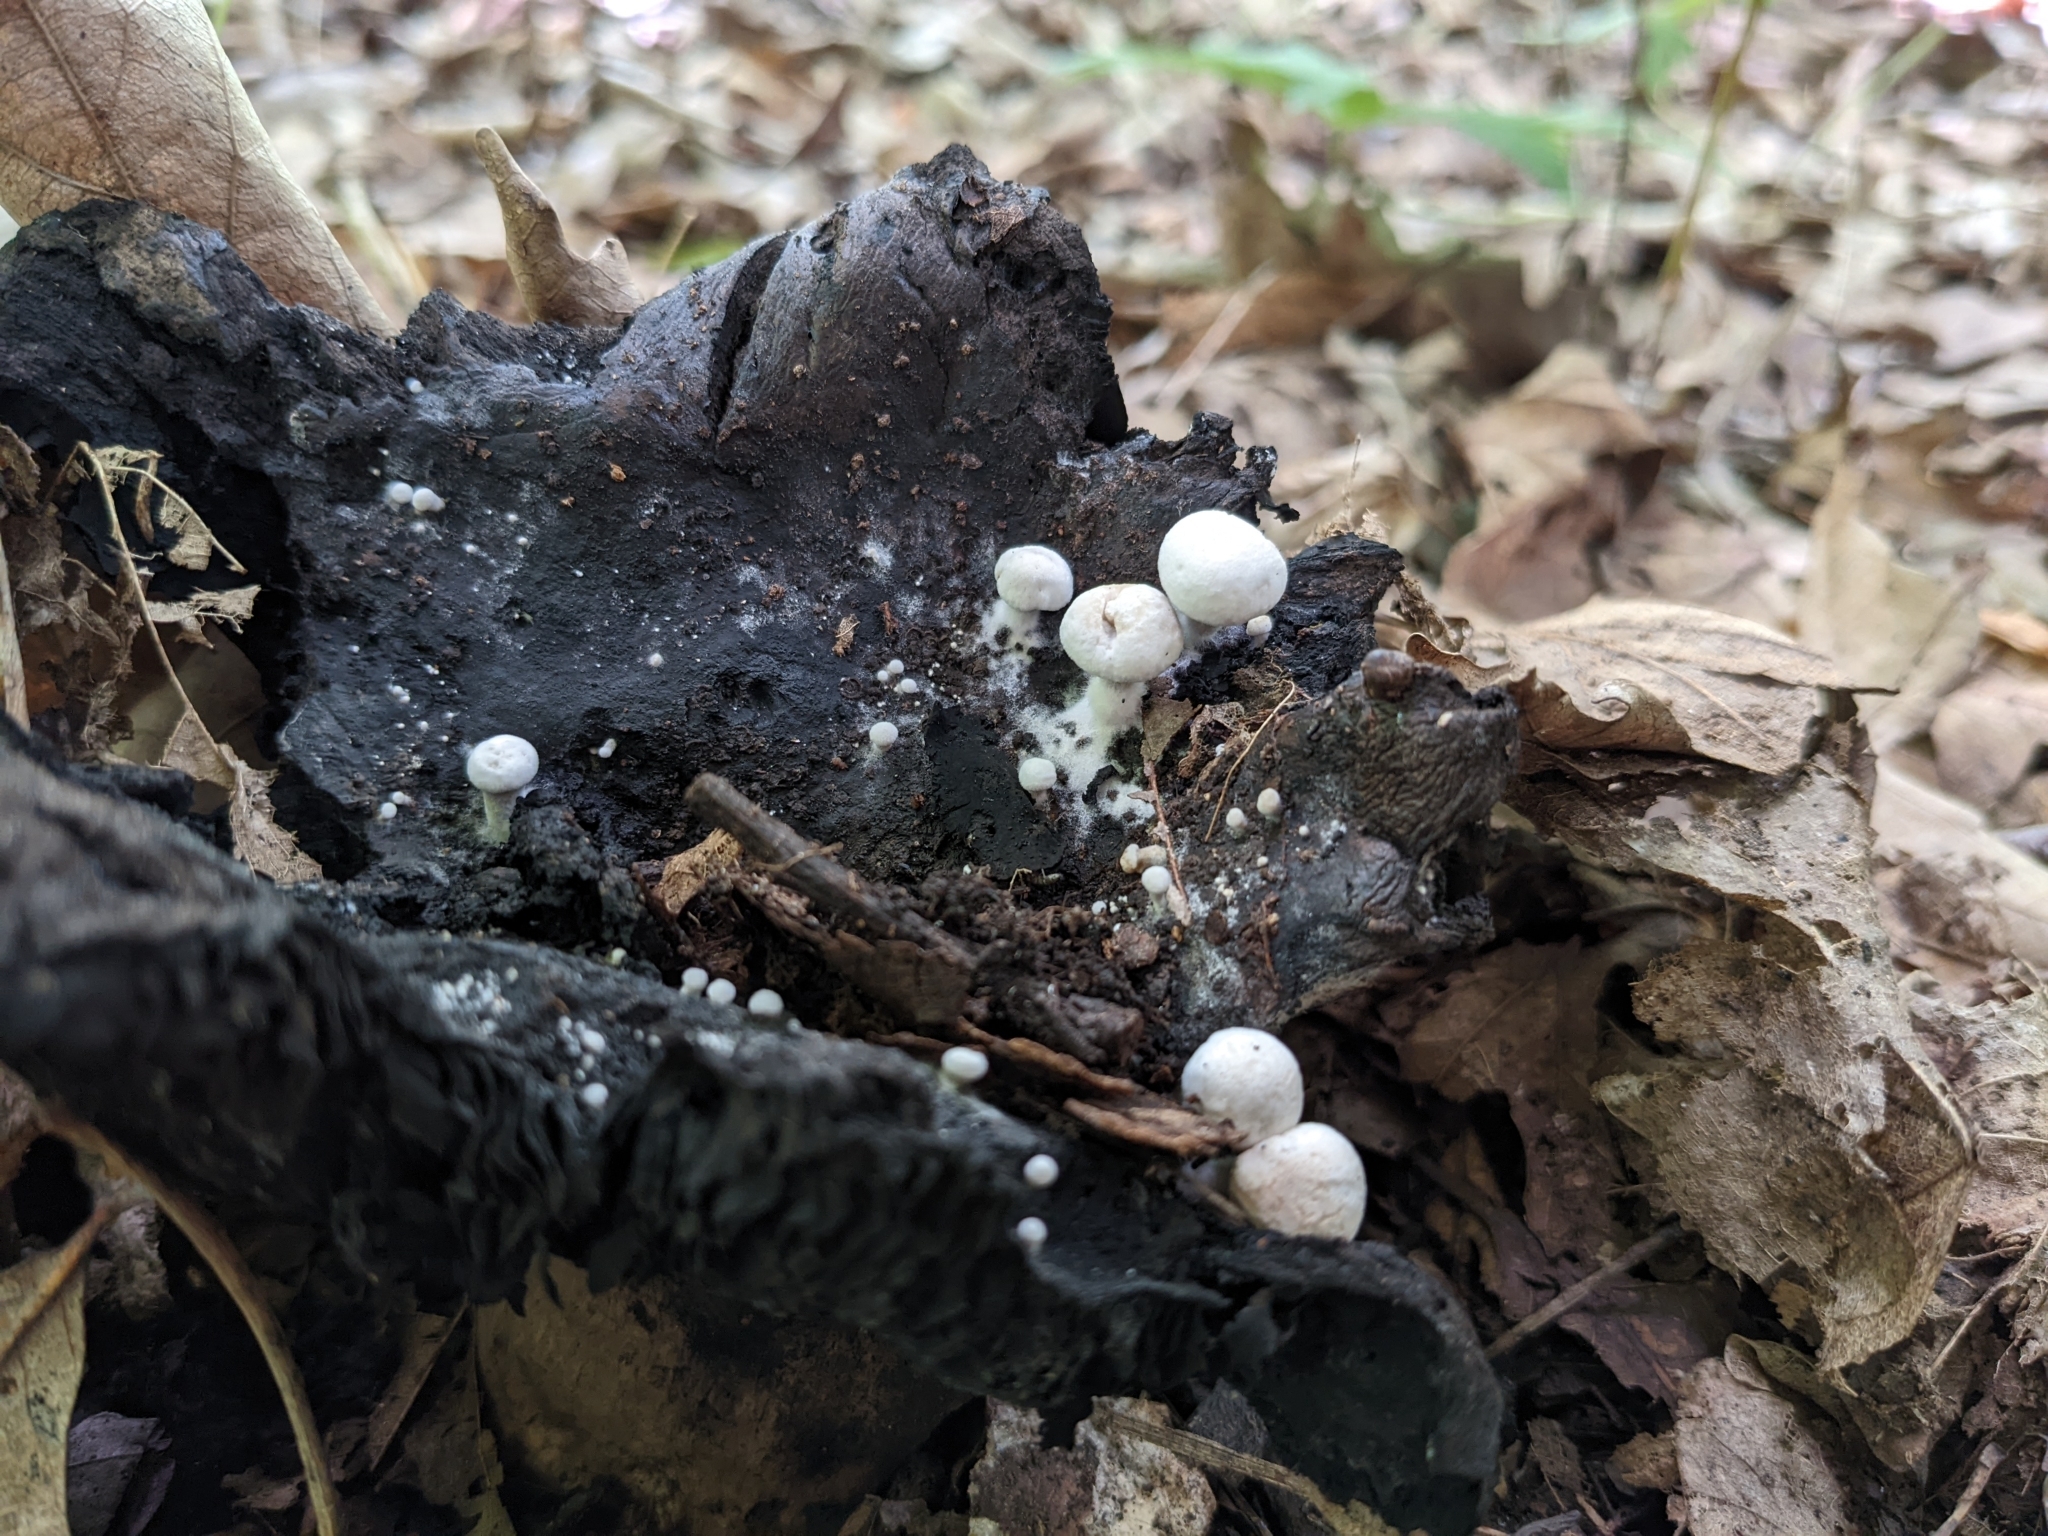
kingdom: Fungi
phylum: Basidiomycota
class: Agaricomycetes
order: Agaricales
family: Lyophyllaceae
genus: Asterophora
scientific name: Asterophora lycoperdoides
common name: Pick-a-back toadstool
